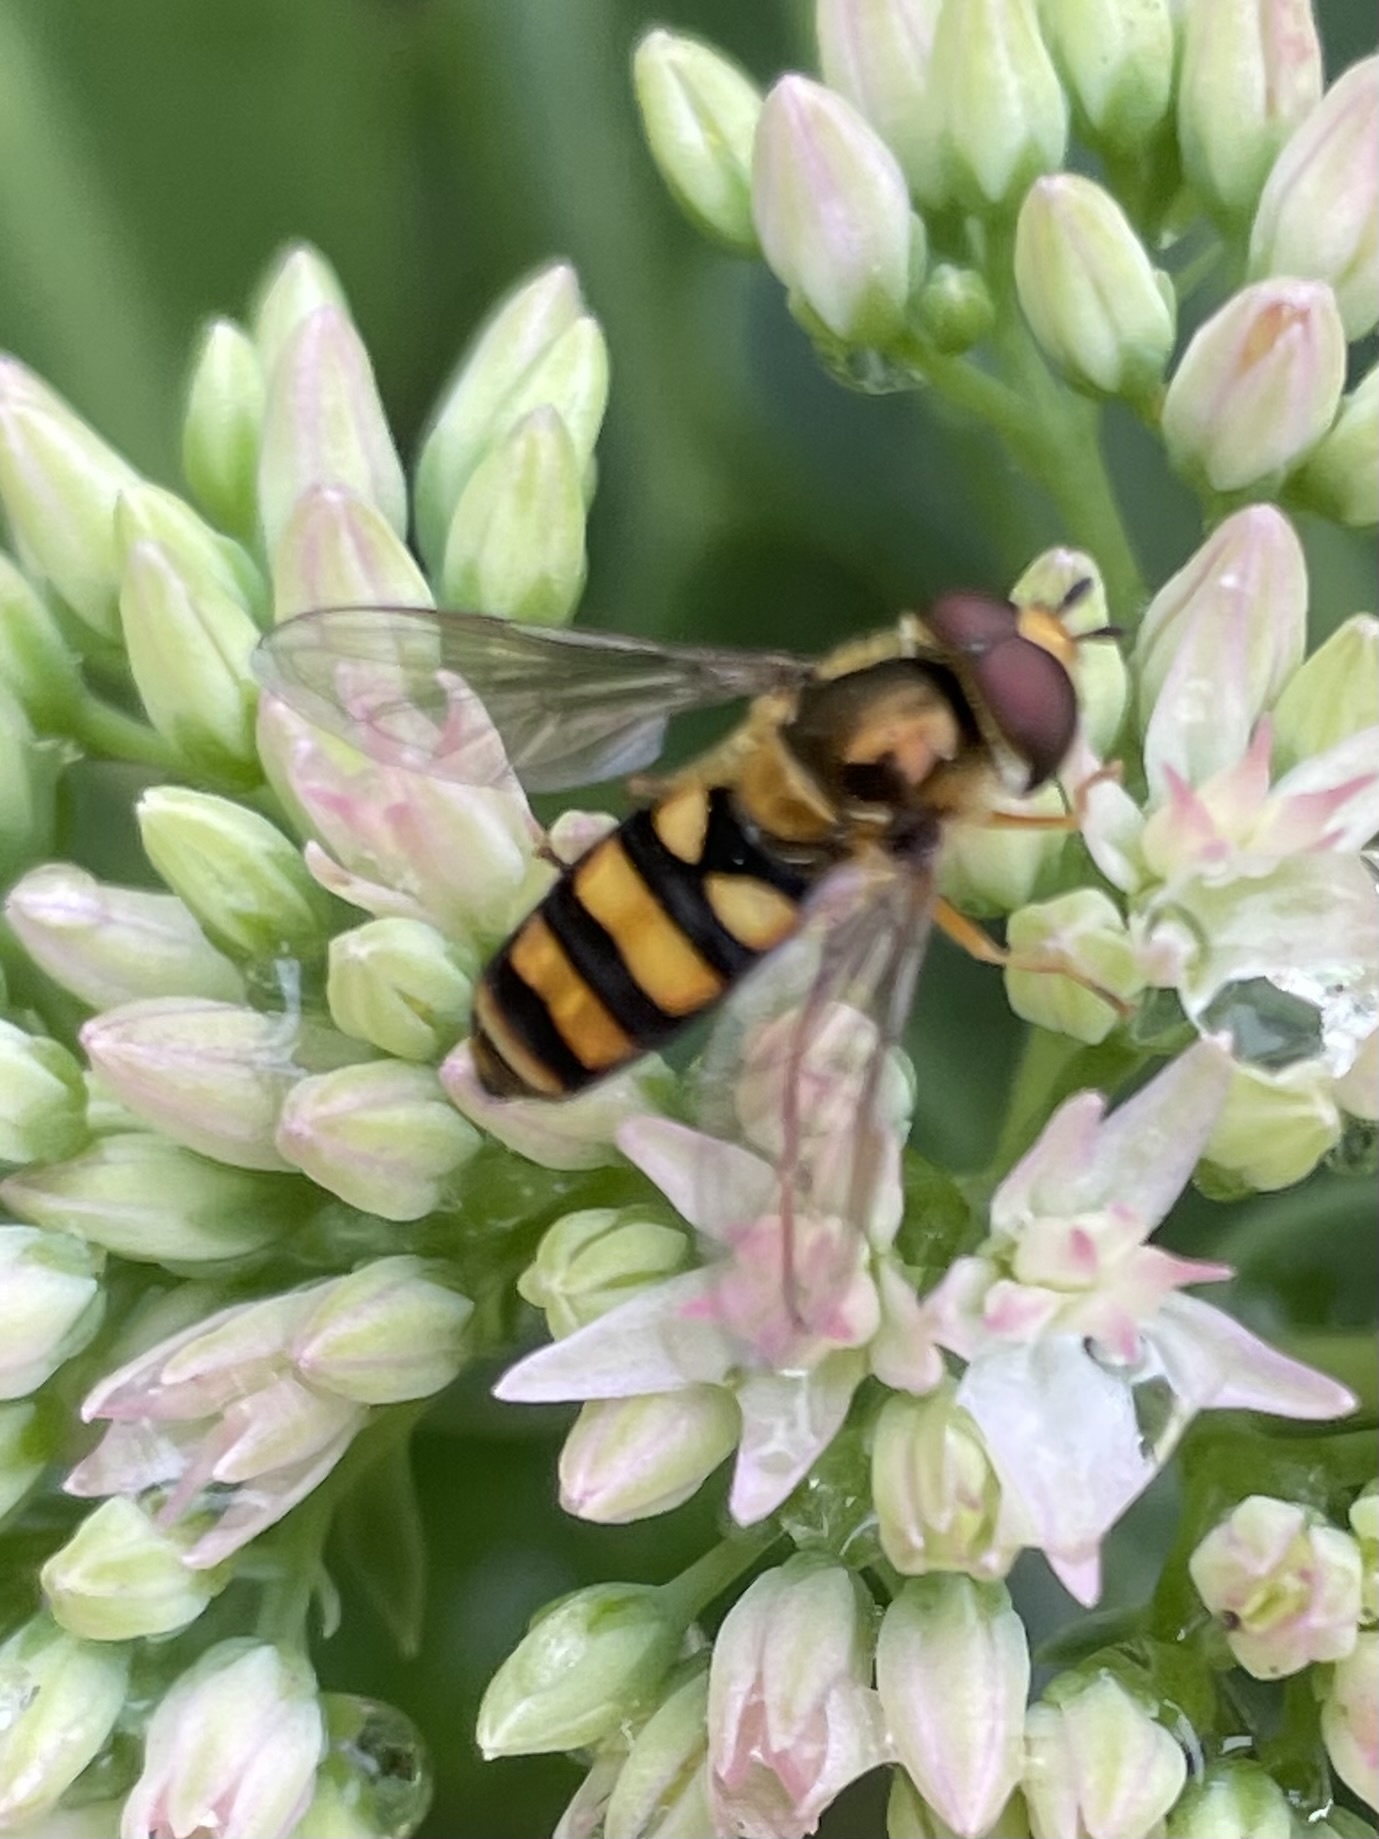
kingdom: Animalia
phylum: Arthropoda
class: Insecta
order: Diptera
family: Syrphidae
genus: Eupeodes
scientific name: Eupeodes
